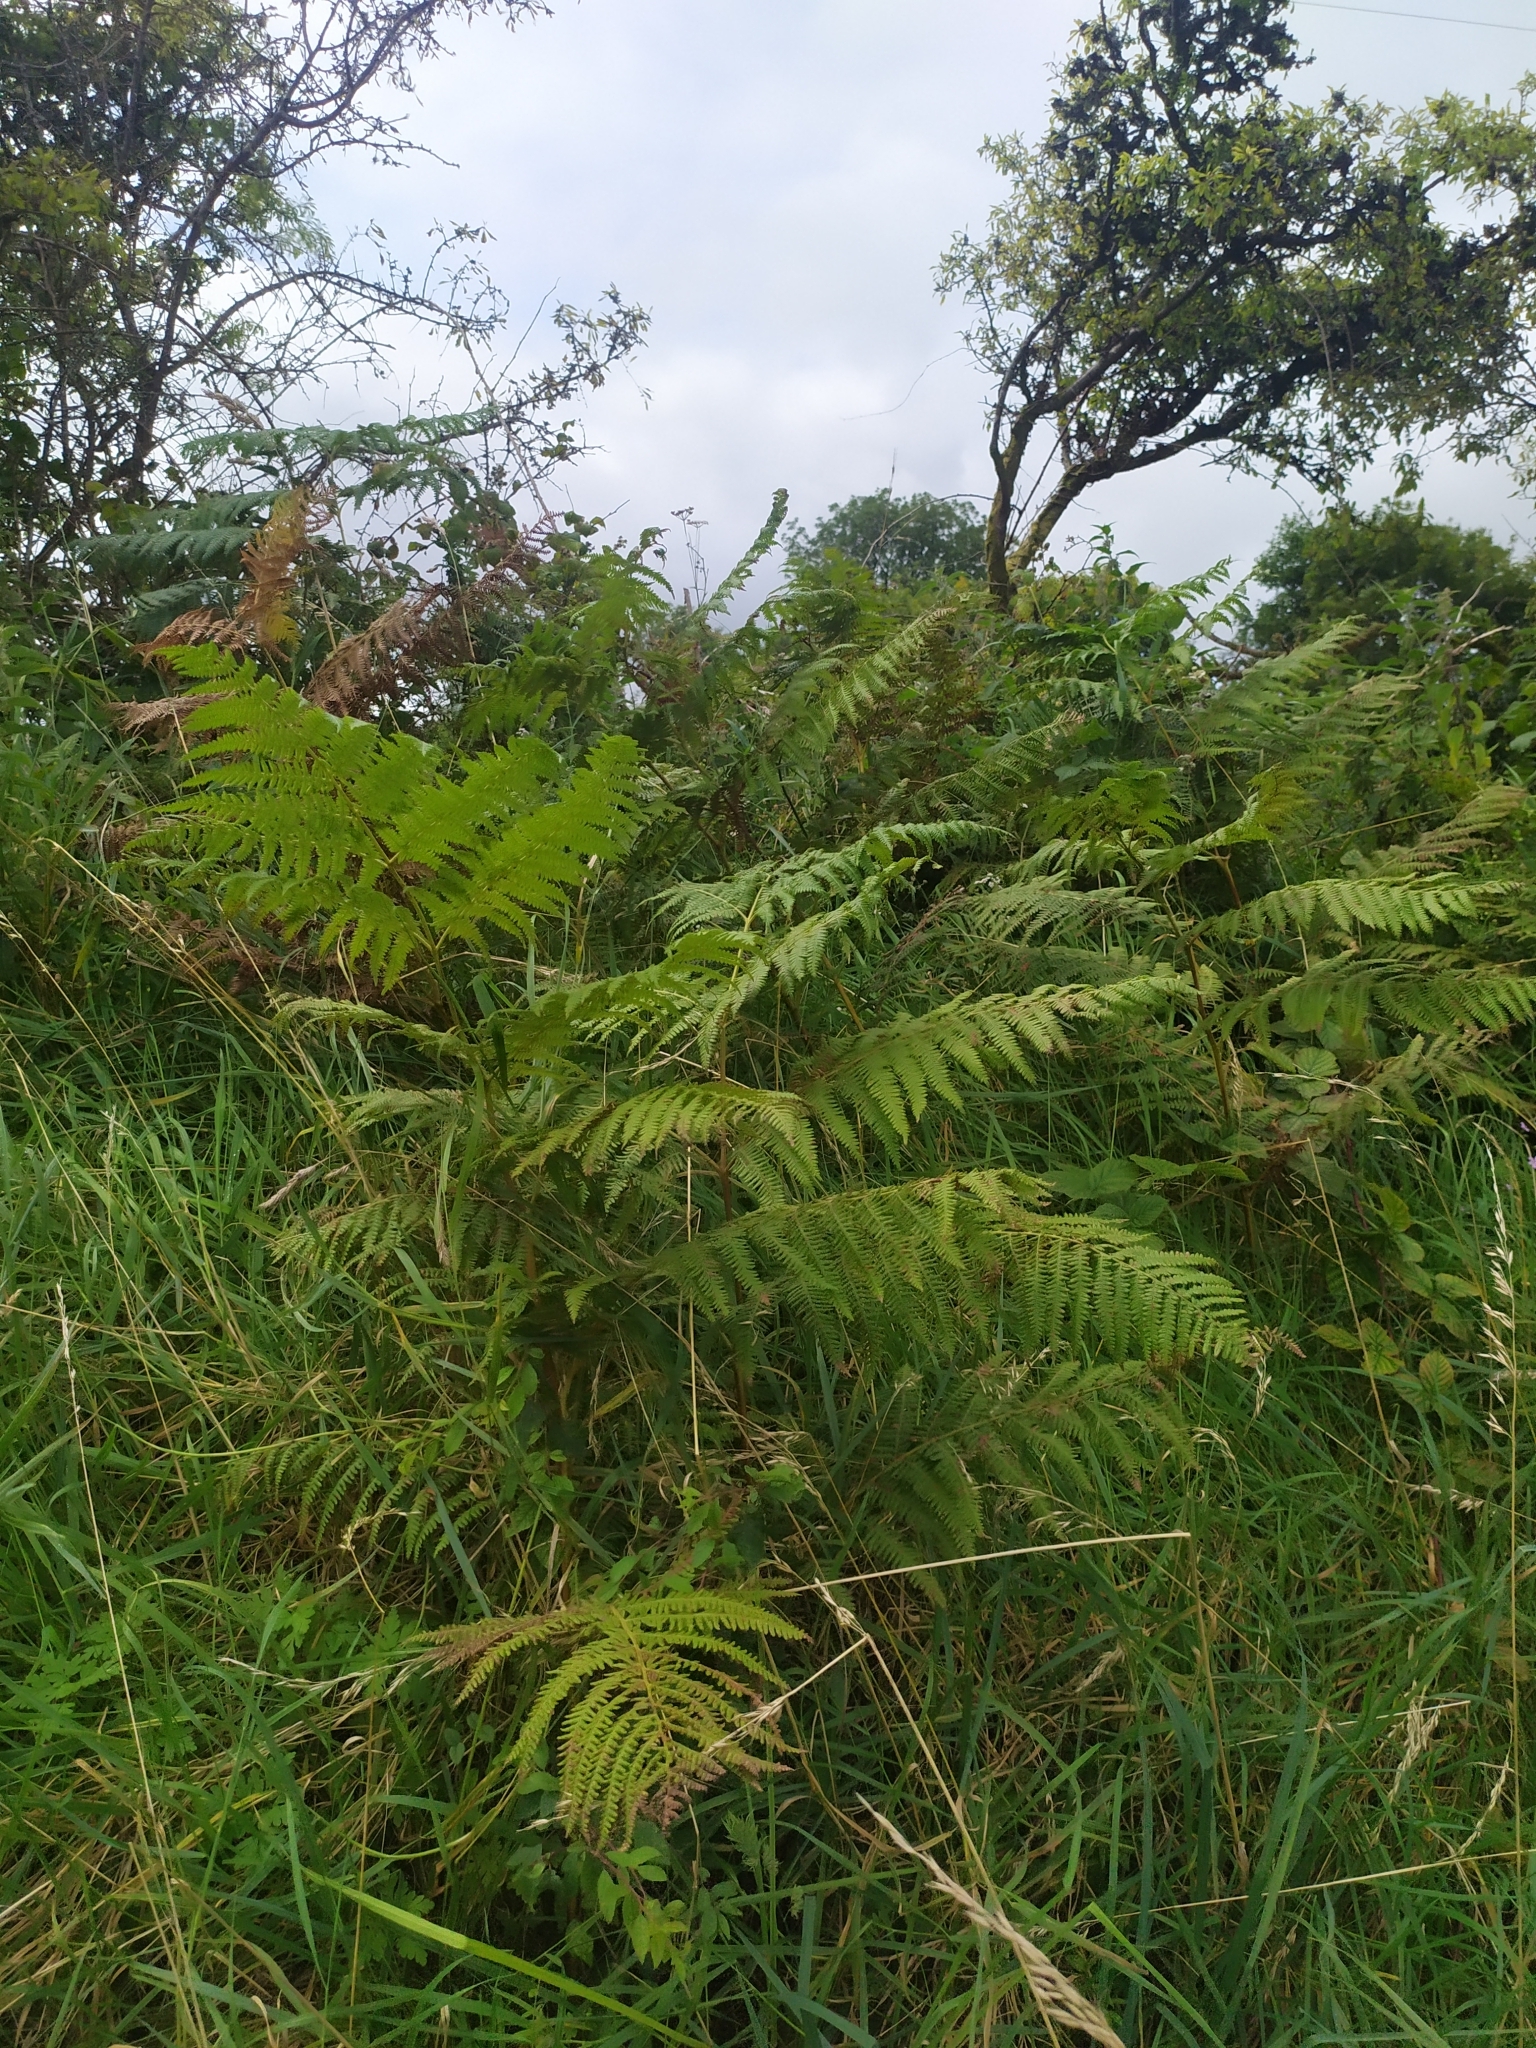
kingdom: Plantae
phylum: Tracheophyta
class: Polypodiopsida
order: Polypodiales
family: Dennstaedtiaceae
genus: Pteridium
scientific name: Pteridium aquilinum
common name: Bracken
